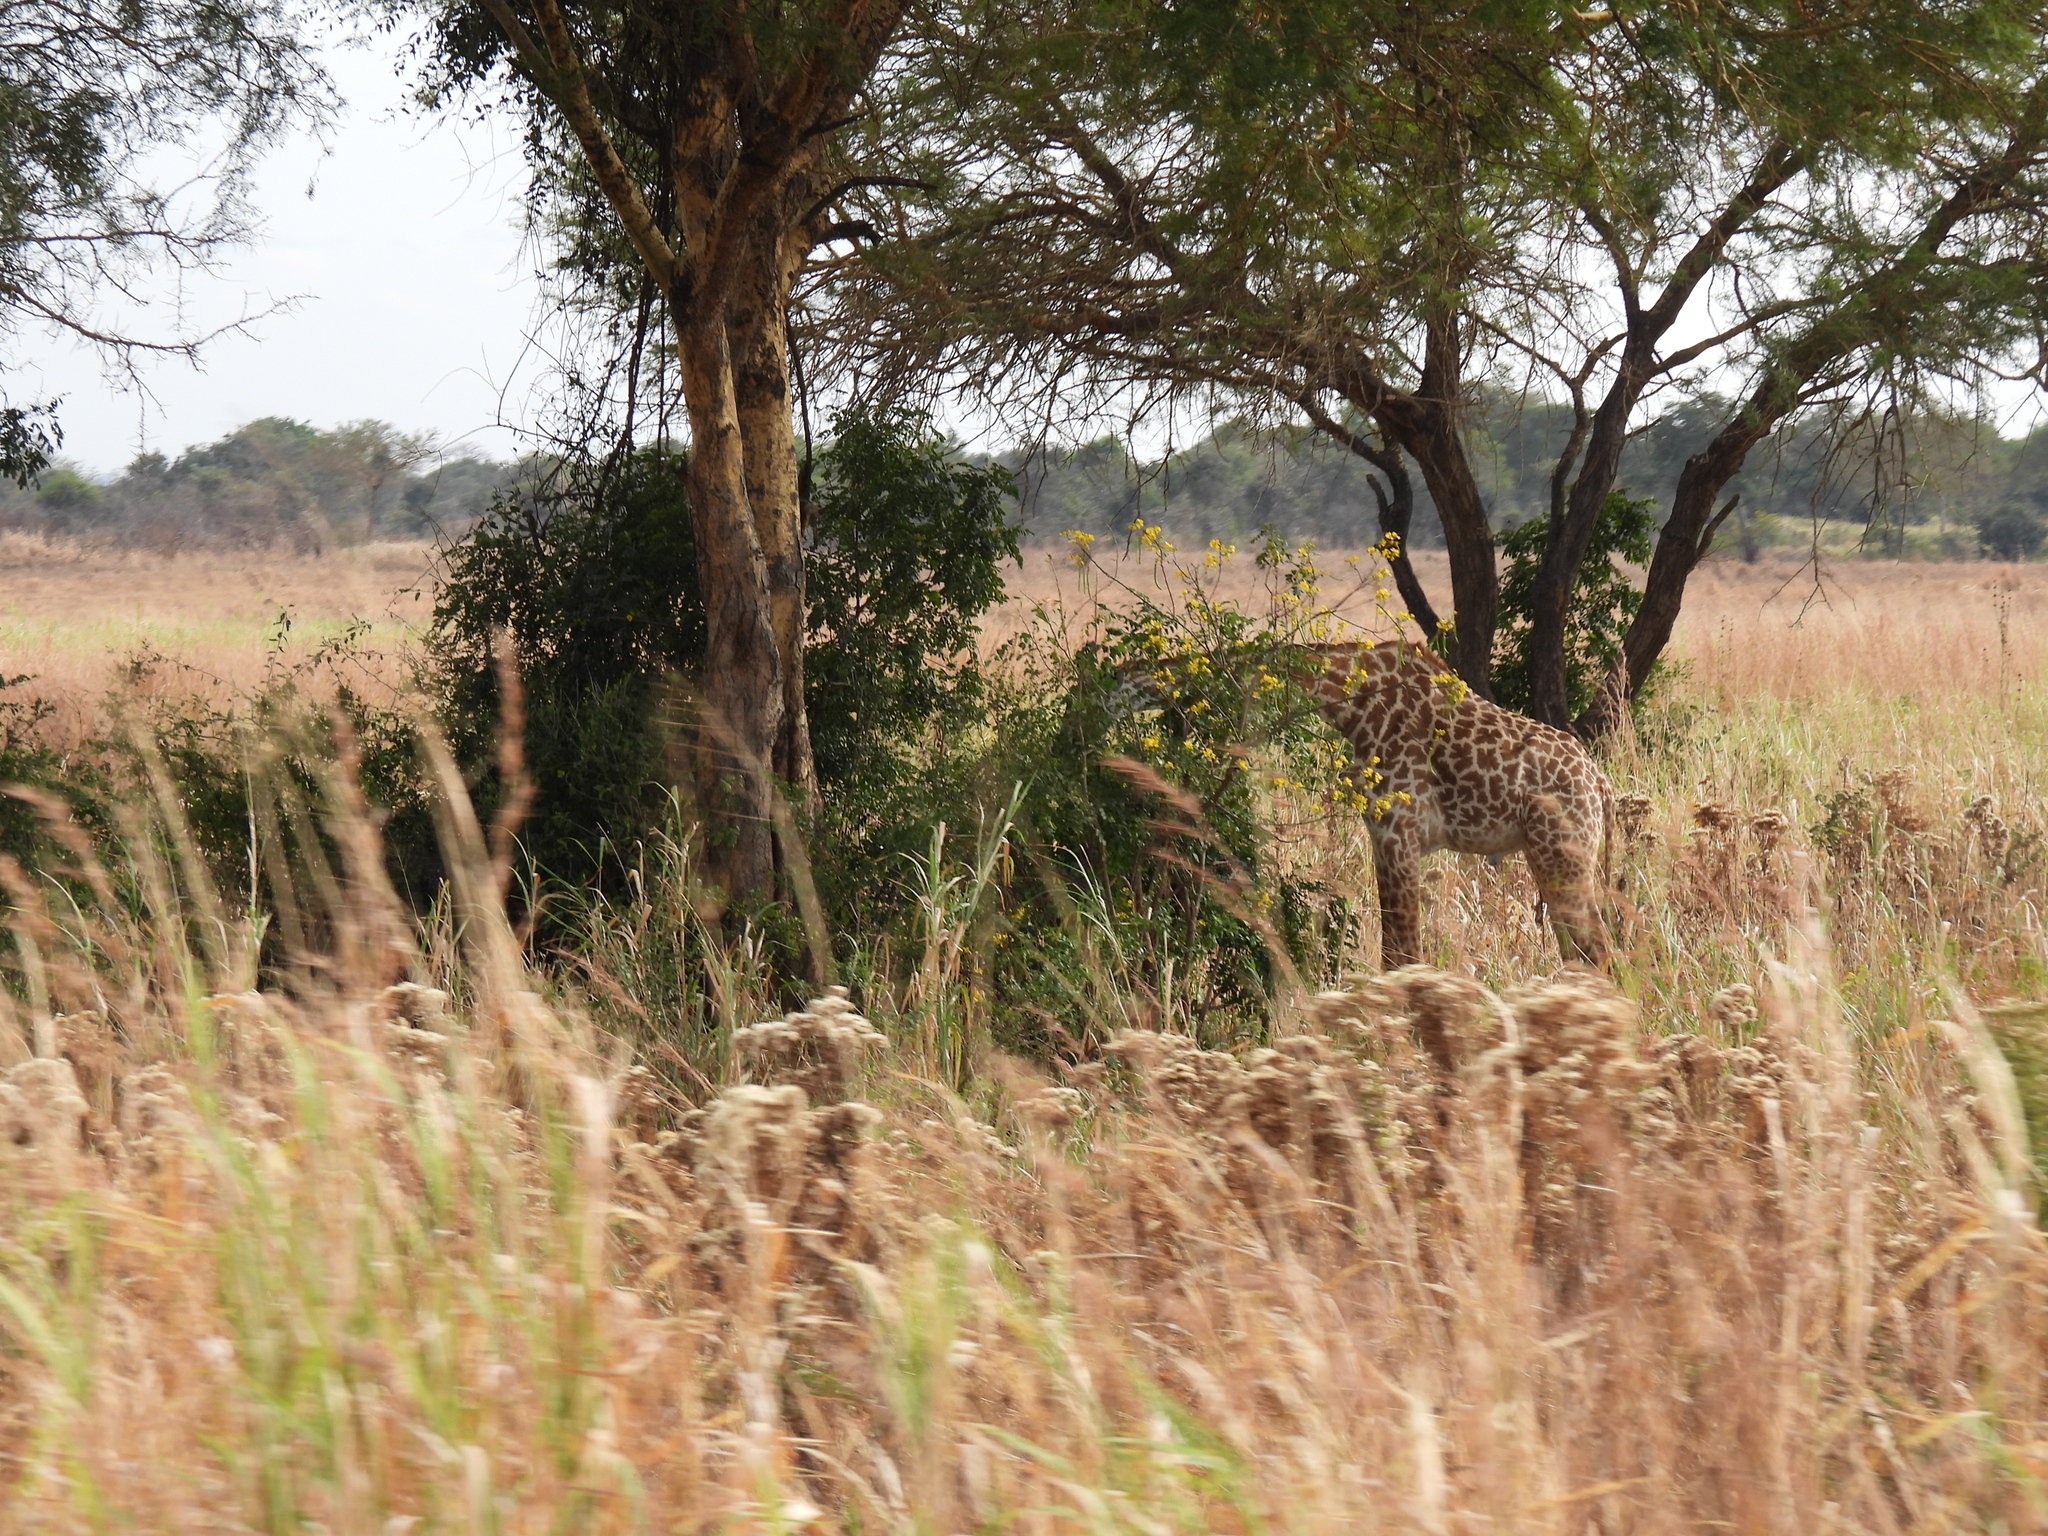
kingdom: Animalia
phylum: Chordata
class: Mammalia
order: Artiodactyla
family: Giraffidae
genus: Giraffa
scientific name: Giraffa tippelskirchi
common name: Masai giraffe
